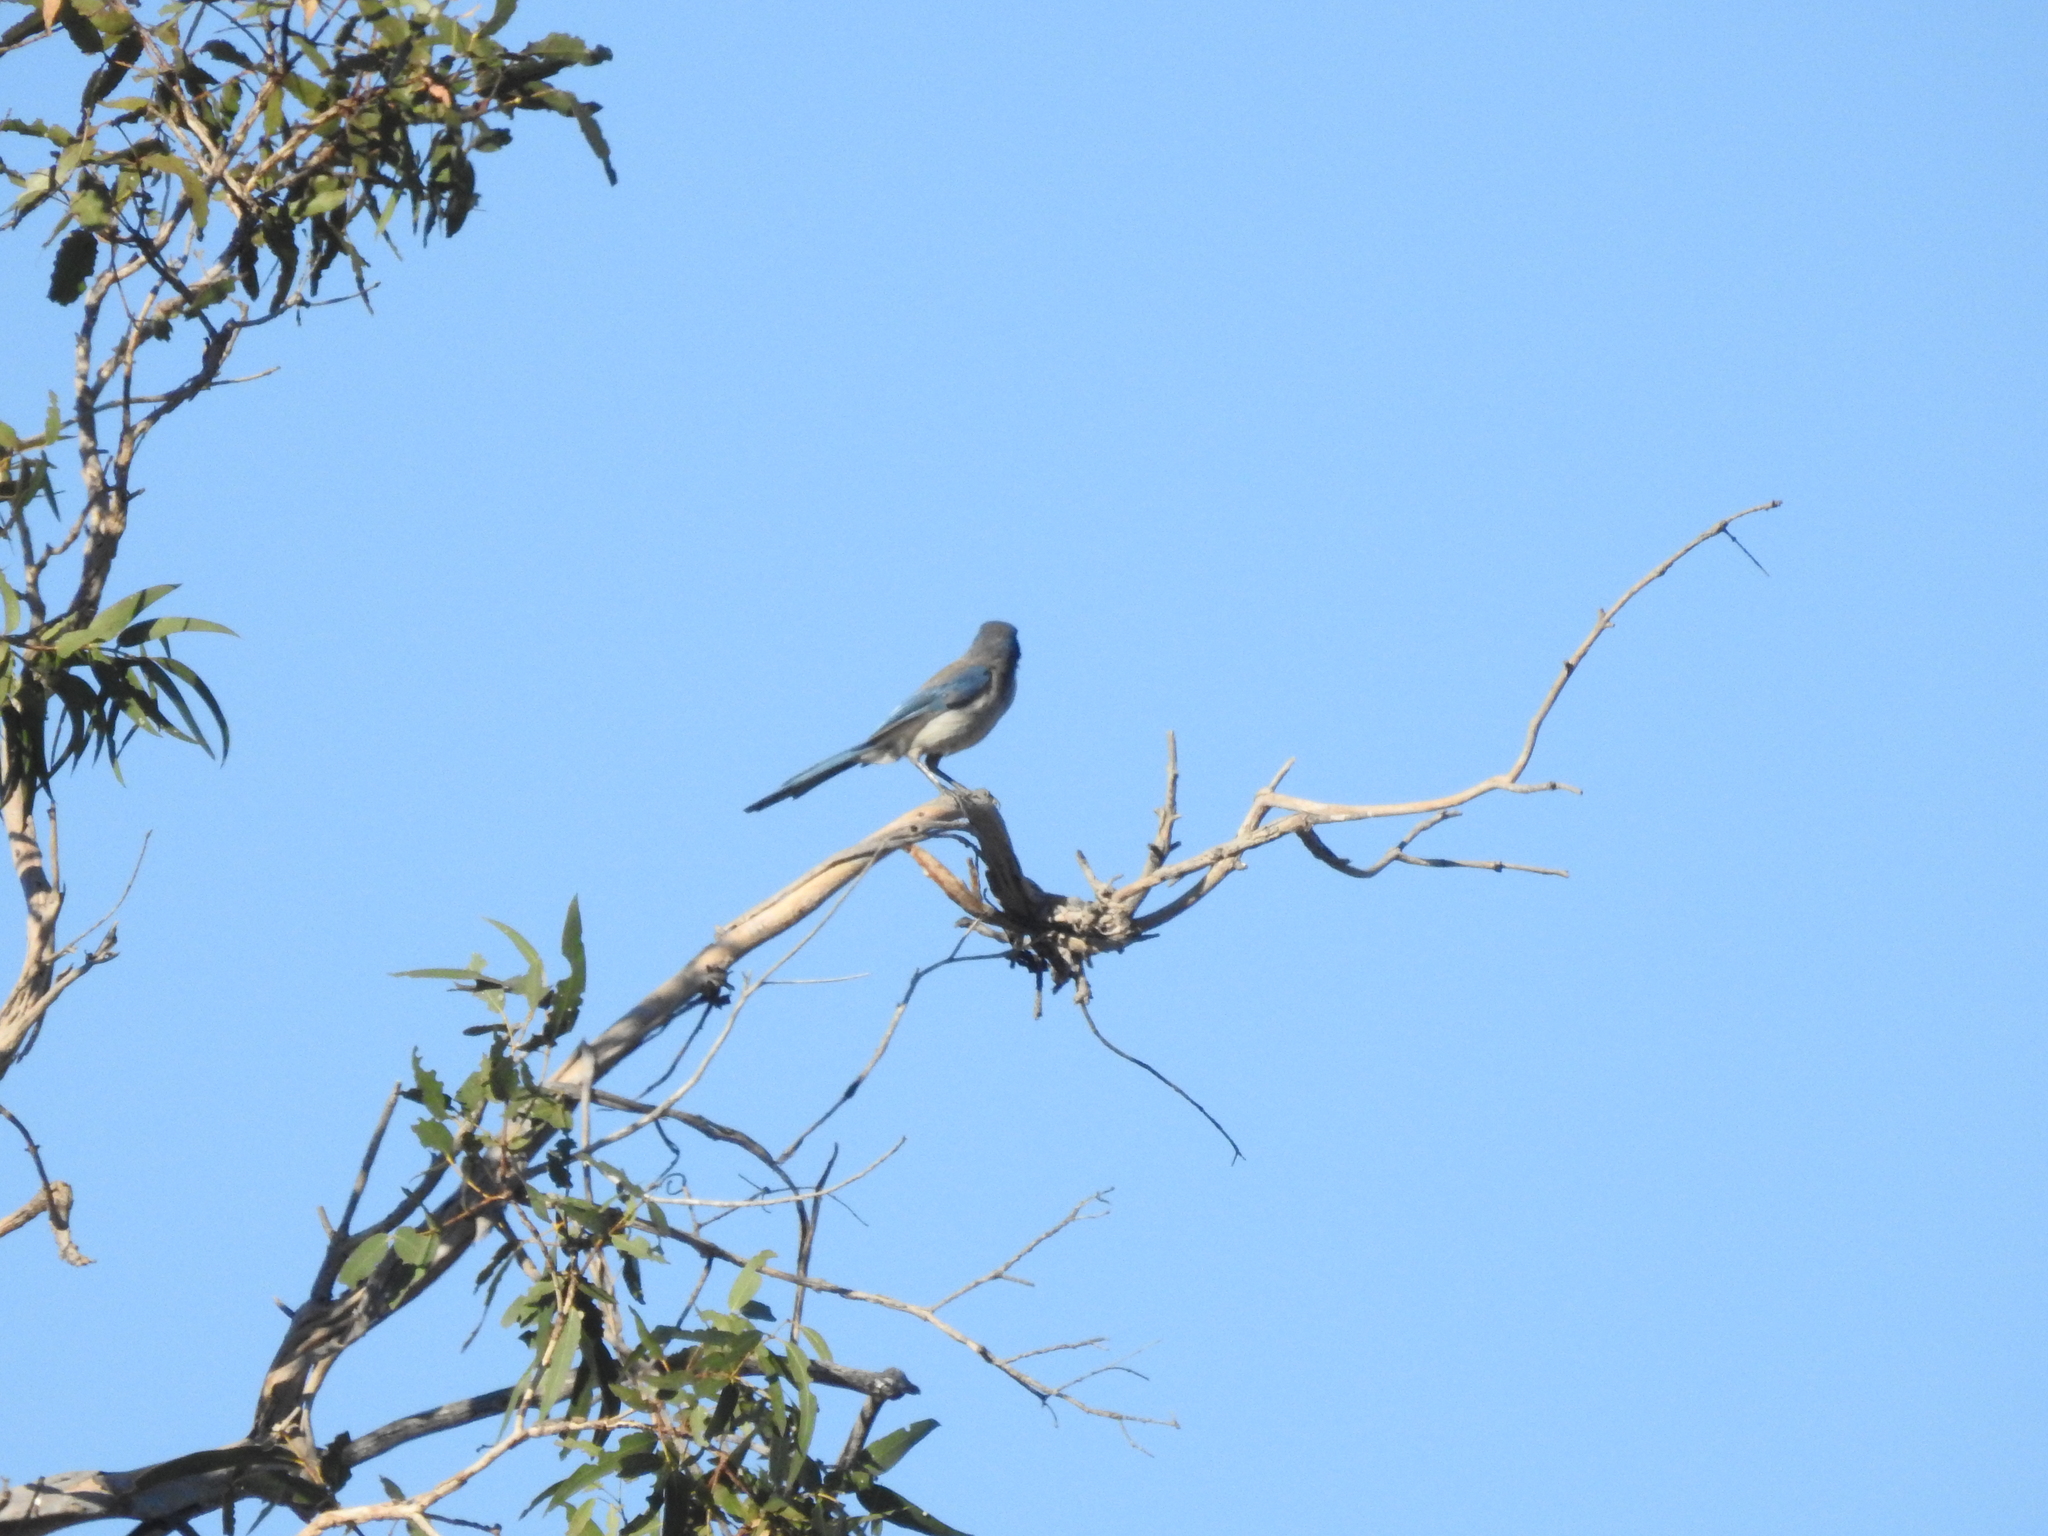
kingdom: Animalia
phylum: Chordata
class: Aves
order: Passeriformes
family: Corvidae
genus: Aphelocoma
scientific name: Aphelocoma californica
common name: California scrub-jay
